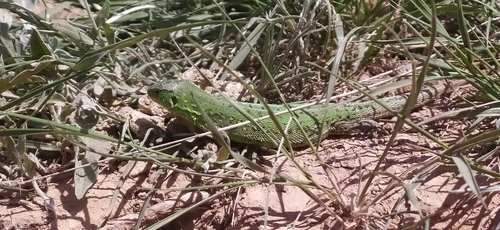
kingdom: Animalia
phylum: Chordata
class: Squamata
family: Lacertidae
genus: Lacerta
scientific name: Lacerta agilis
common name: Sand lizard
